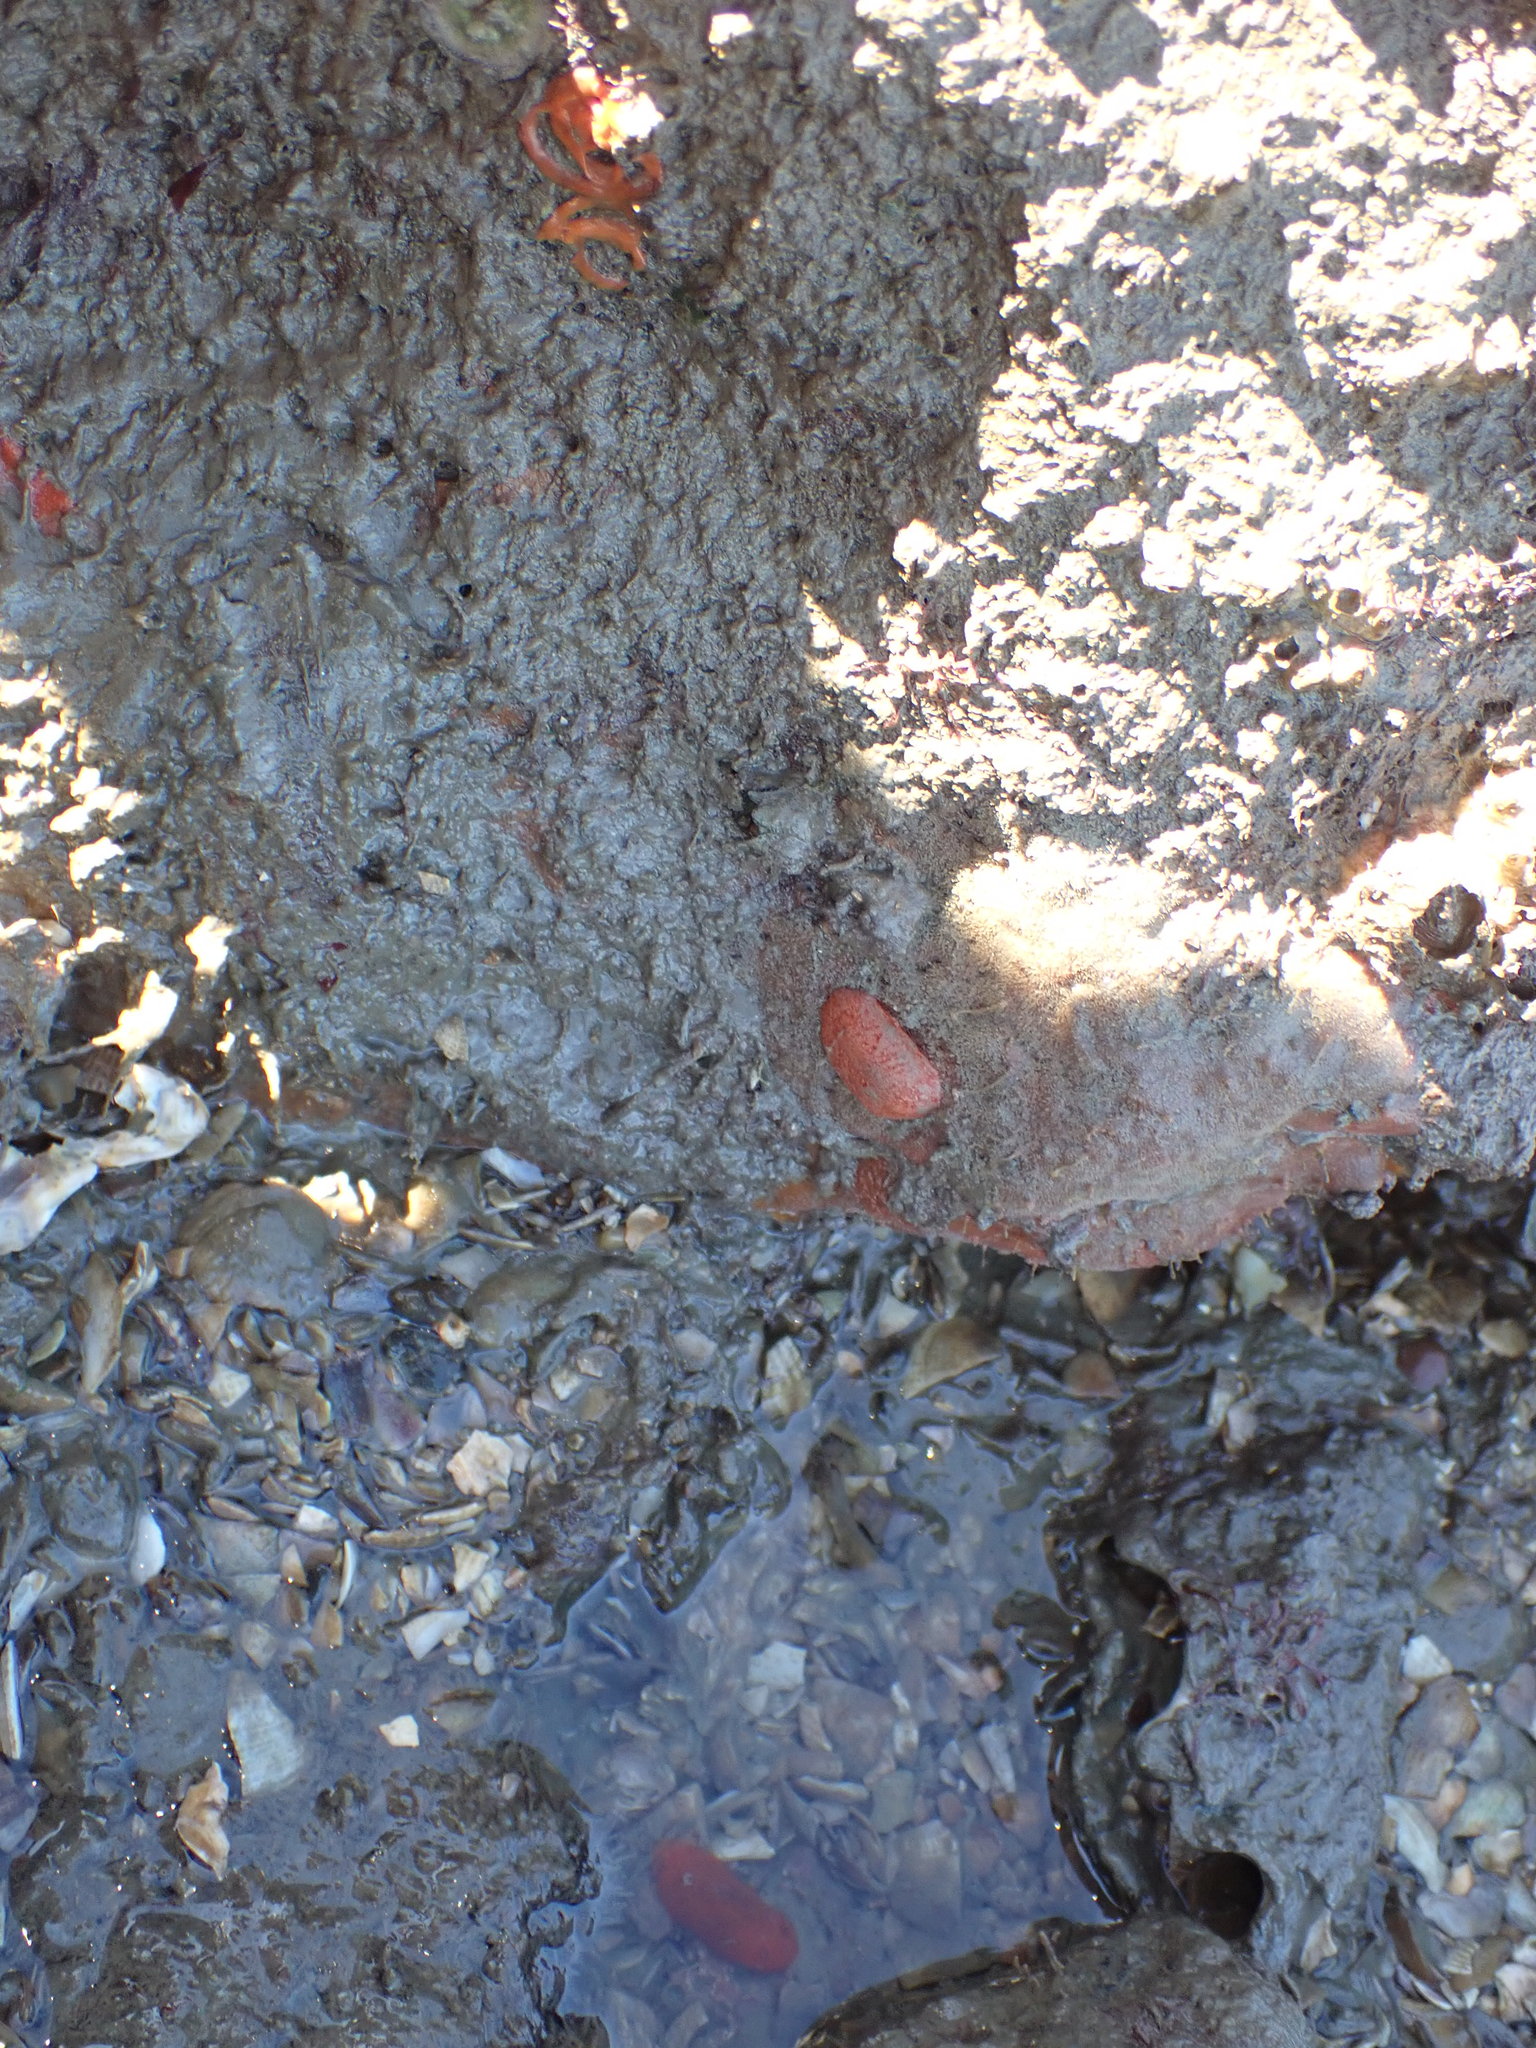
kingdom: Animalia
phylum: Mollusca
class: Gastropoda
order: Nudibranchia
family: Discodorididae
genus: Rostanga
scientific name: Rostanga muscula
